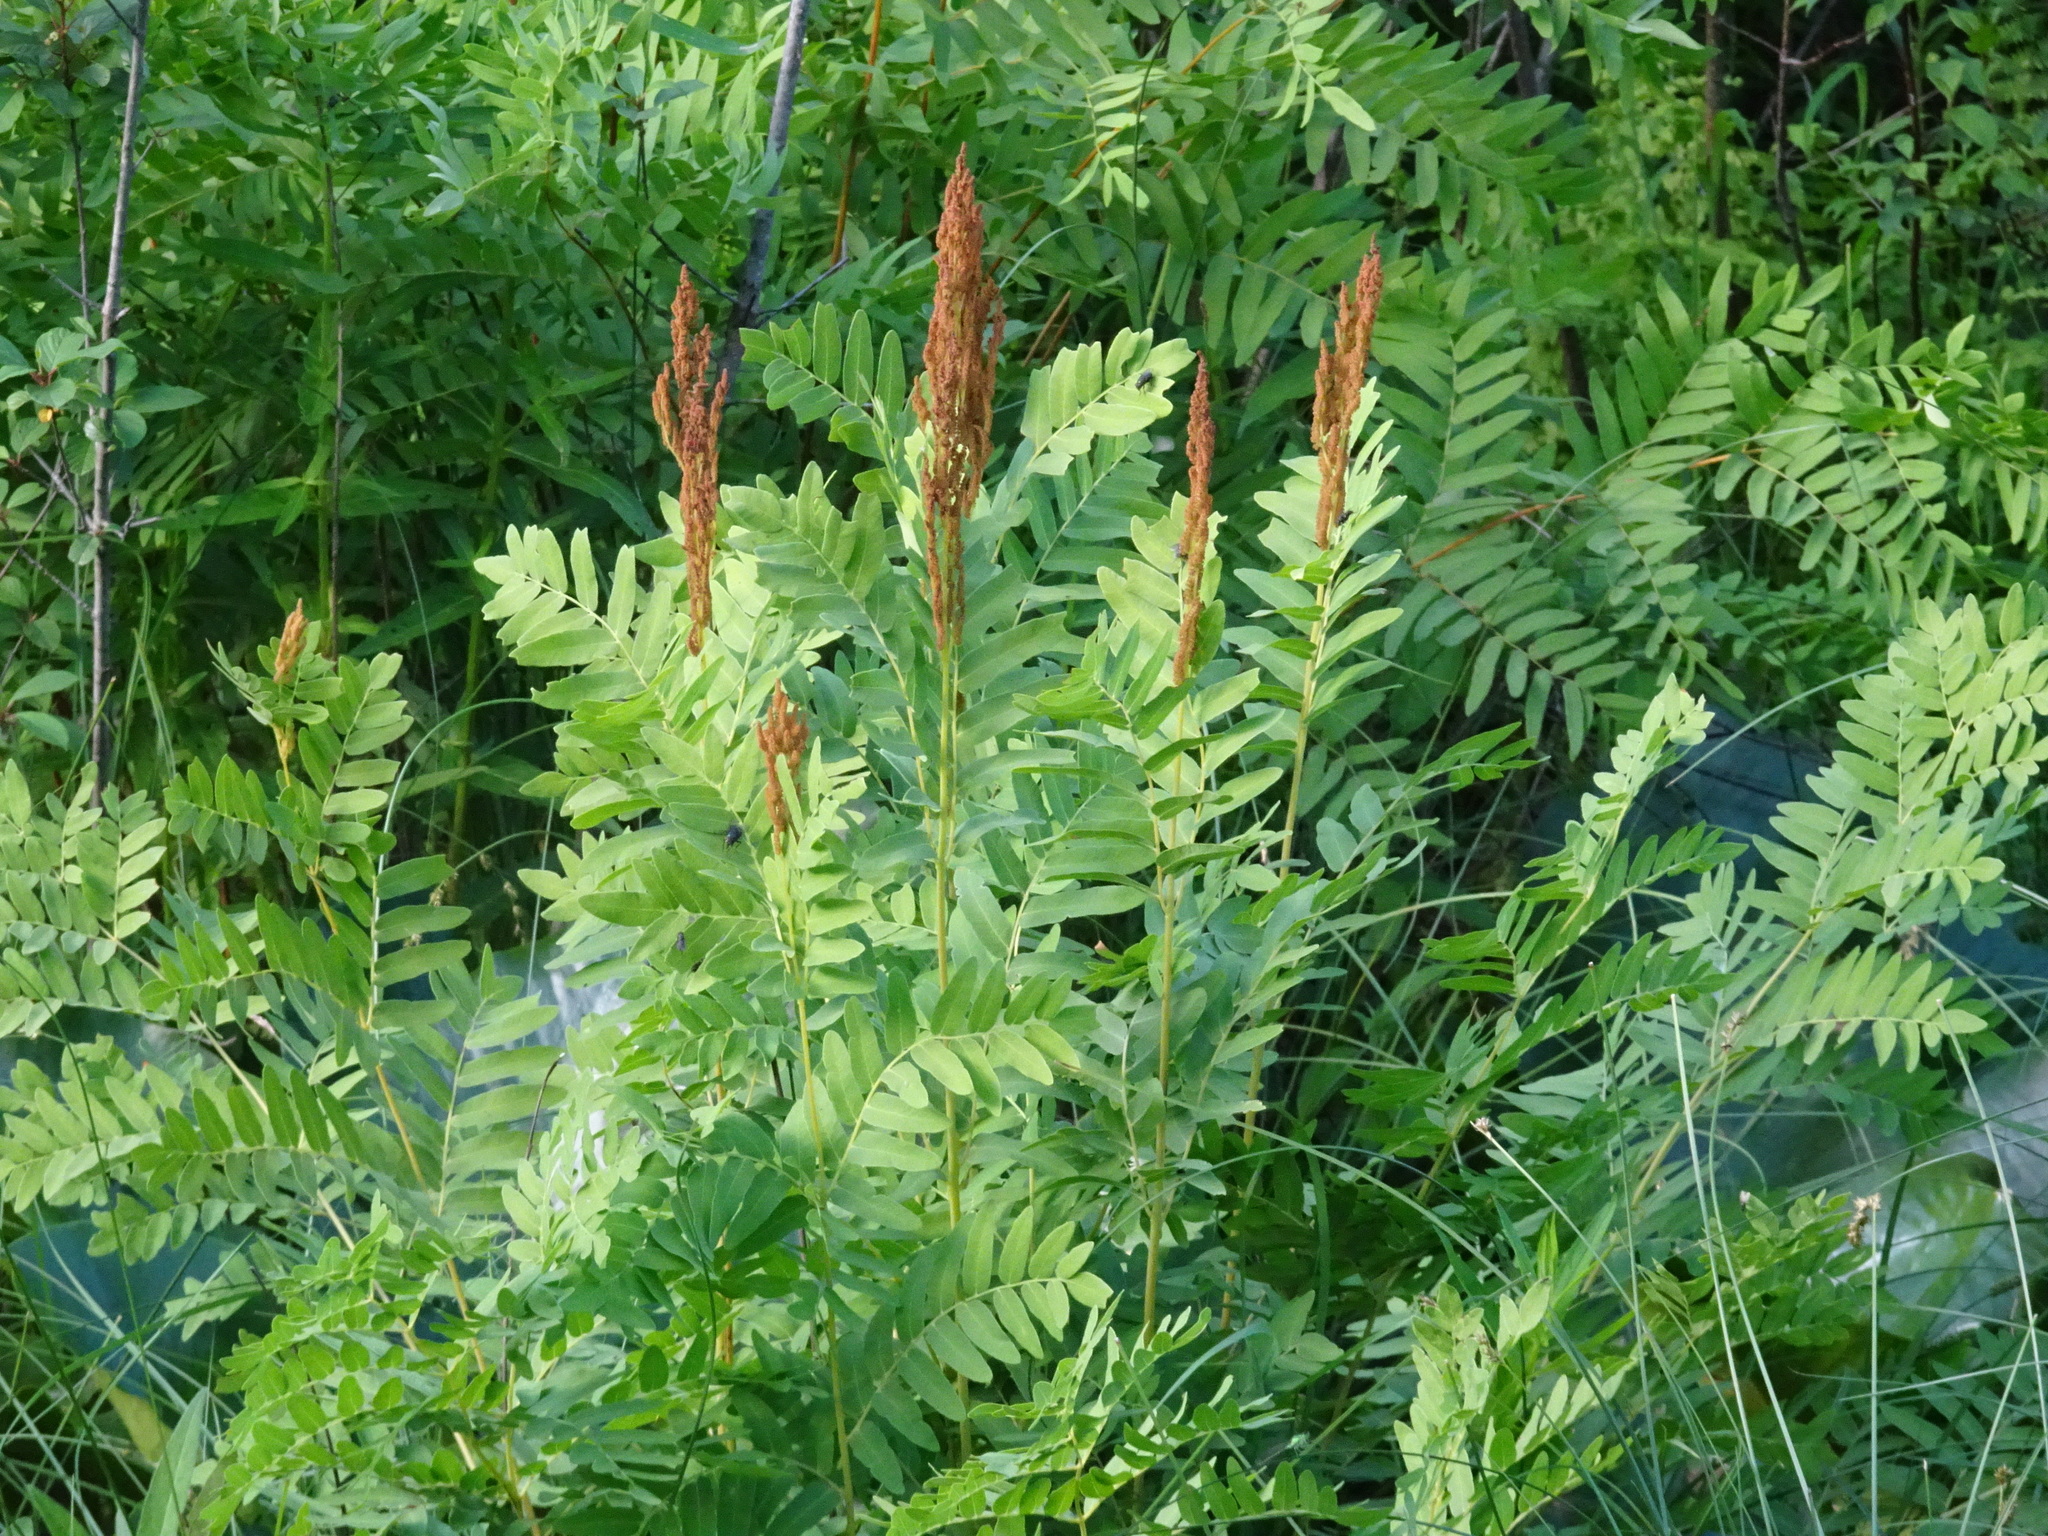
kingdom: Plantae
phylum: Tracheophyta
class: Polypodiopsida
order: Osmundales
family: Osmundaceae
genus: Osmunda
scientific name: Osmunda spectabilis
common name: American royal fern
